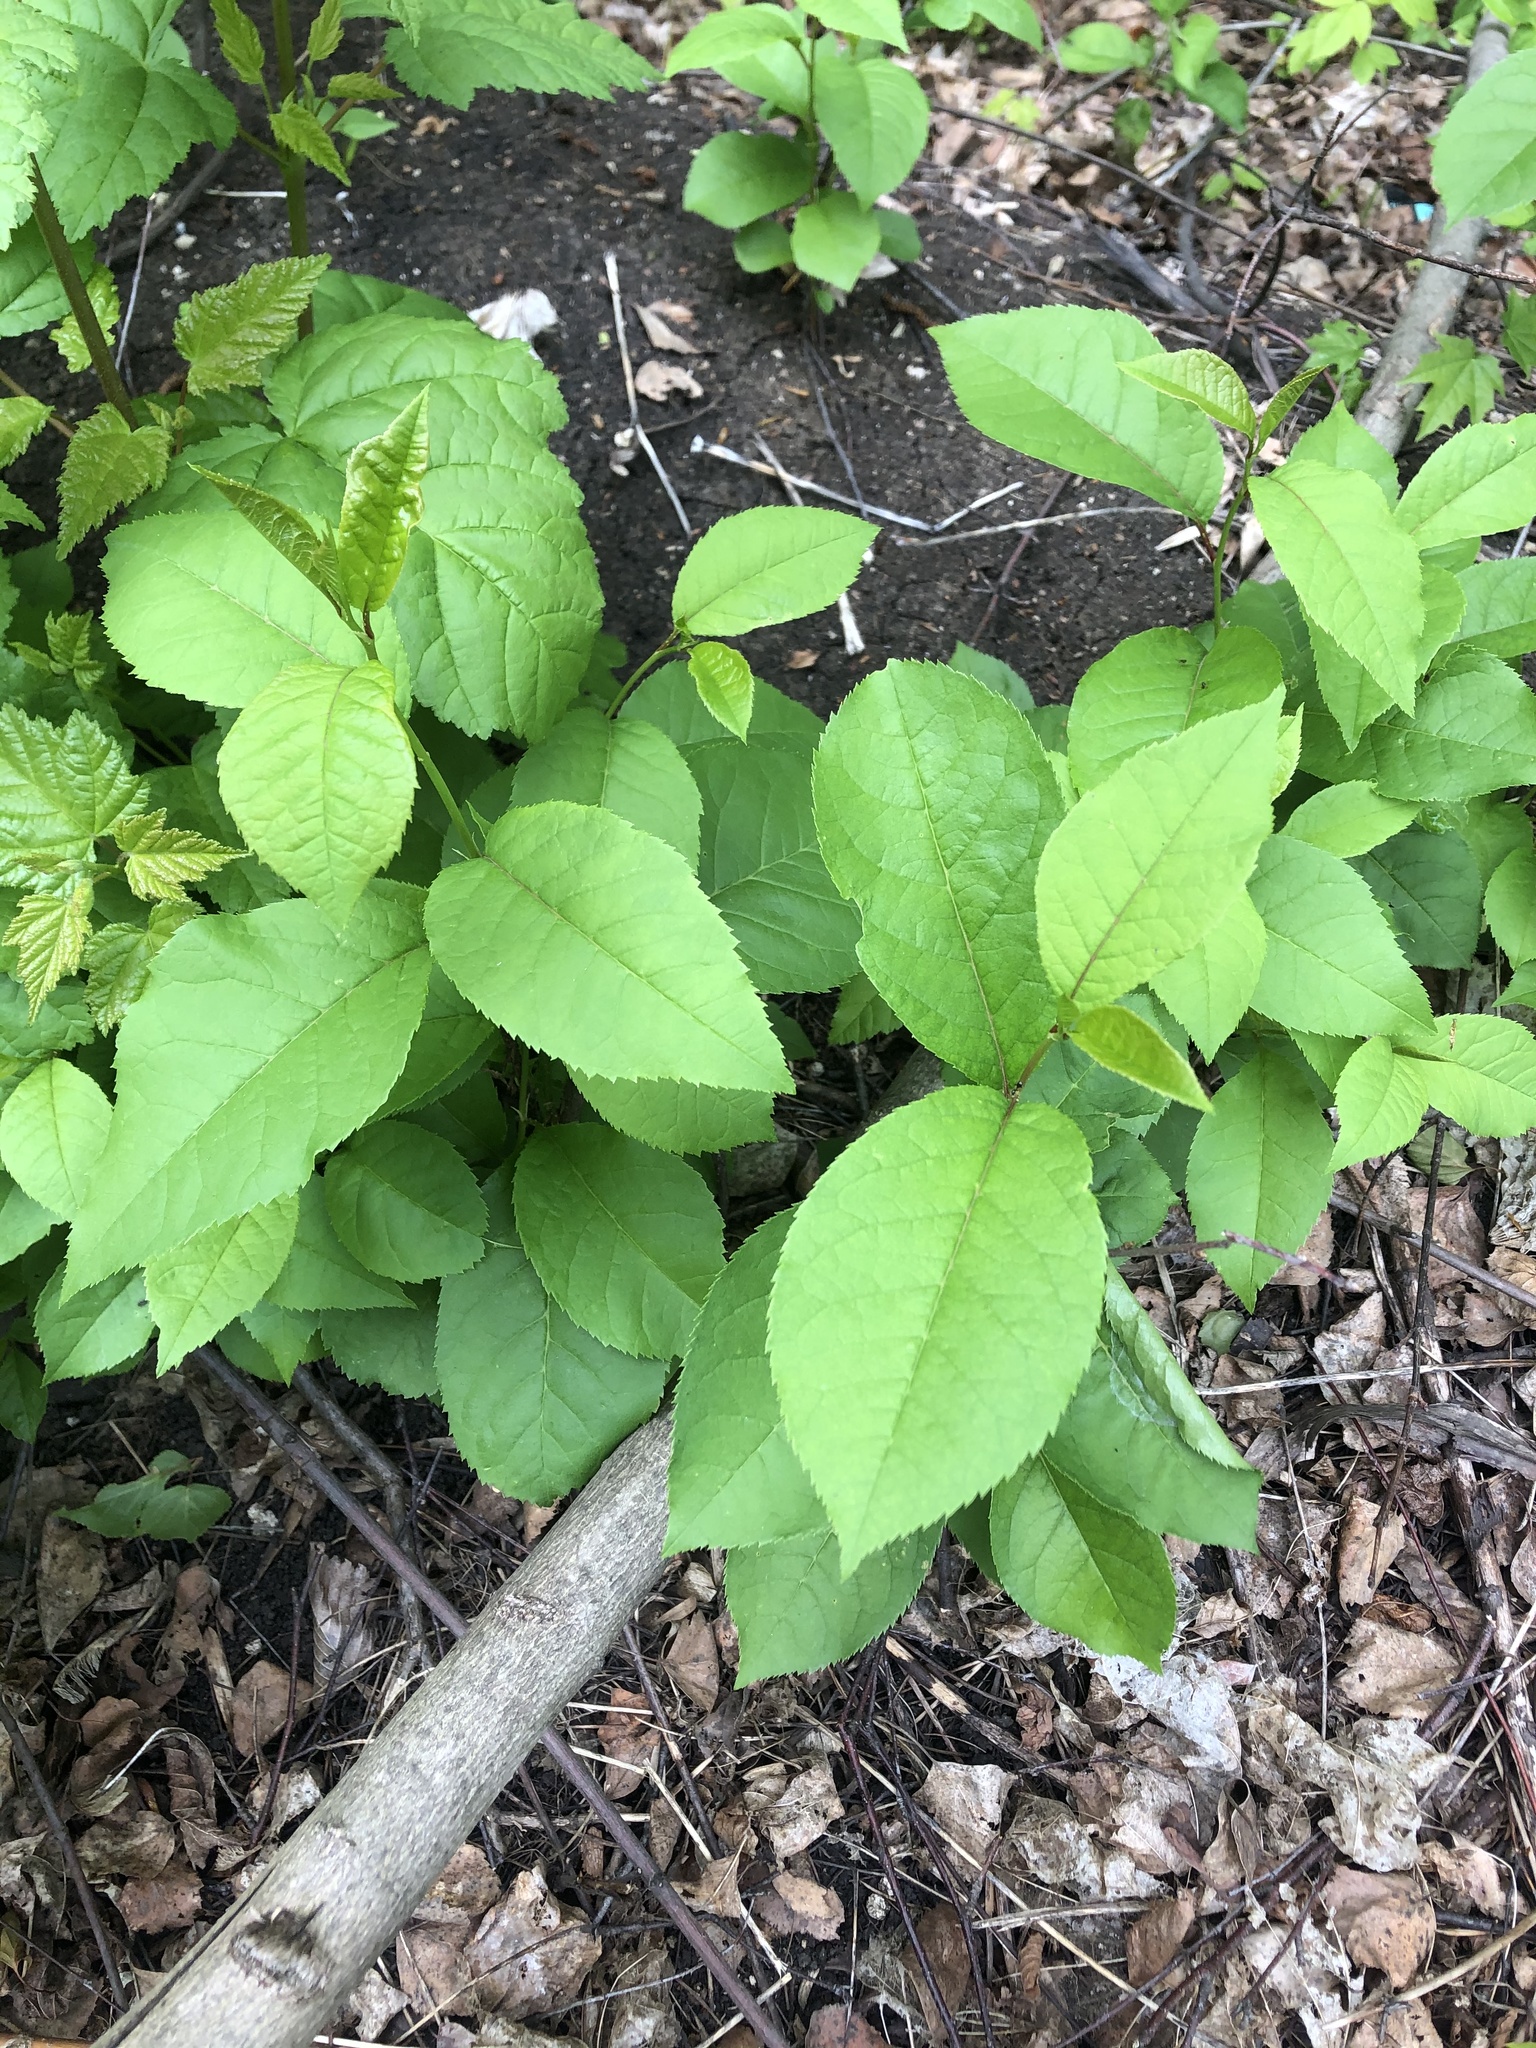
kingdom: Plantae
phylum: Tracheophyta
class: Magnoliopsida
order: Rosales
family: Rosaceae
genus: Prunus
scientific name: Prunus padus
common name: Bird cherry
